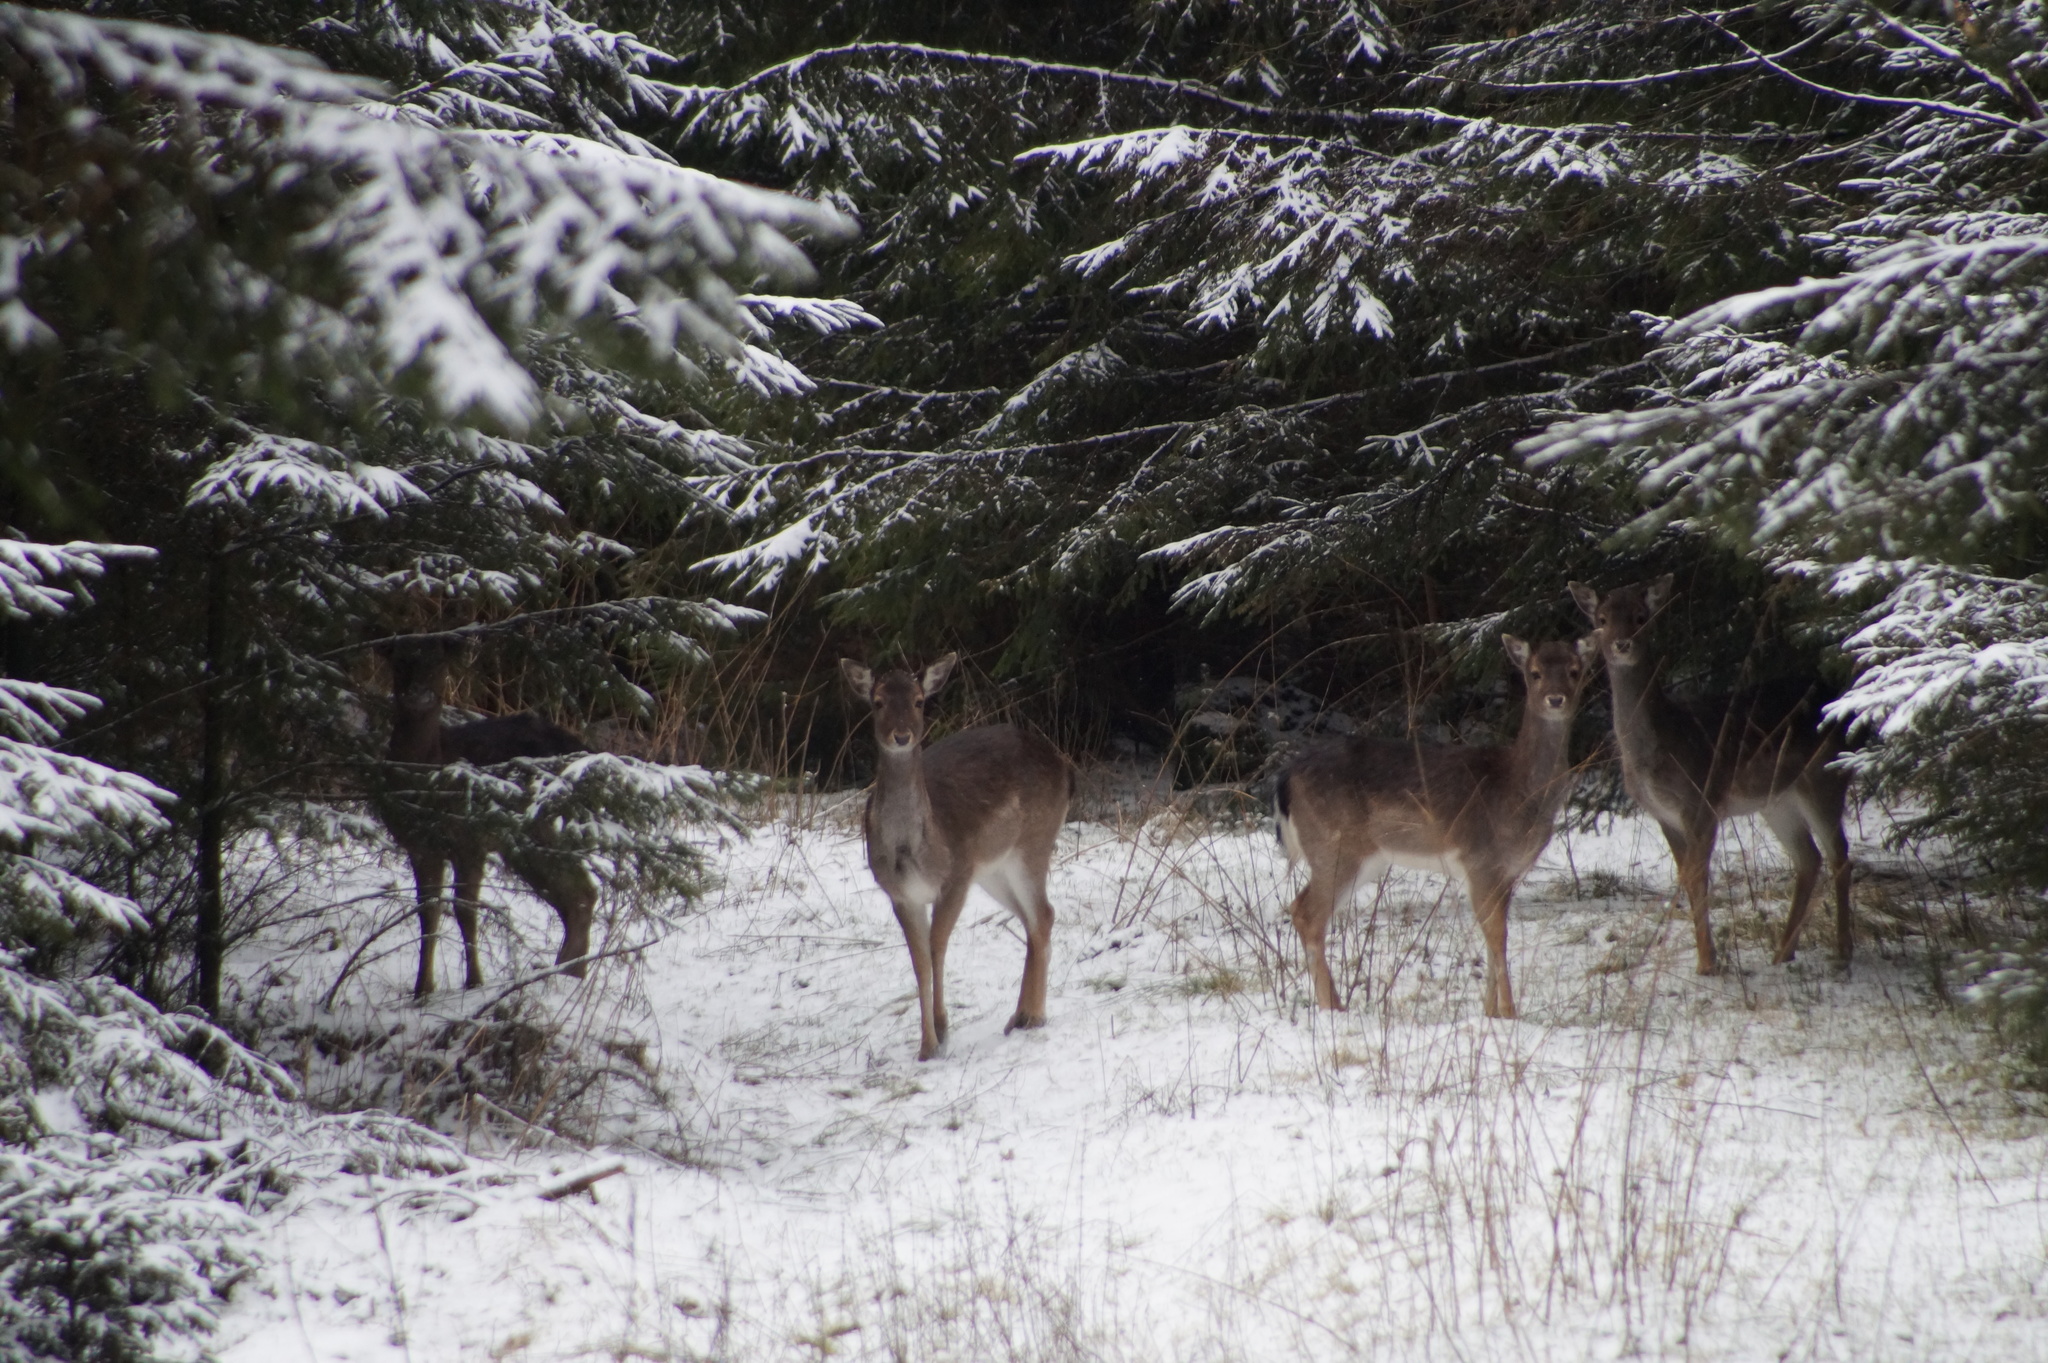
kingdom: Animalia
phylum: Chordata
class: Mammalia
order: Artiodactyla
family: Cervidae
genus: Dama
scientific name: Dama dama
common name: Fallow deer
